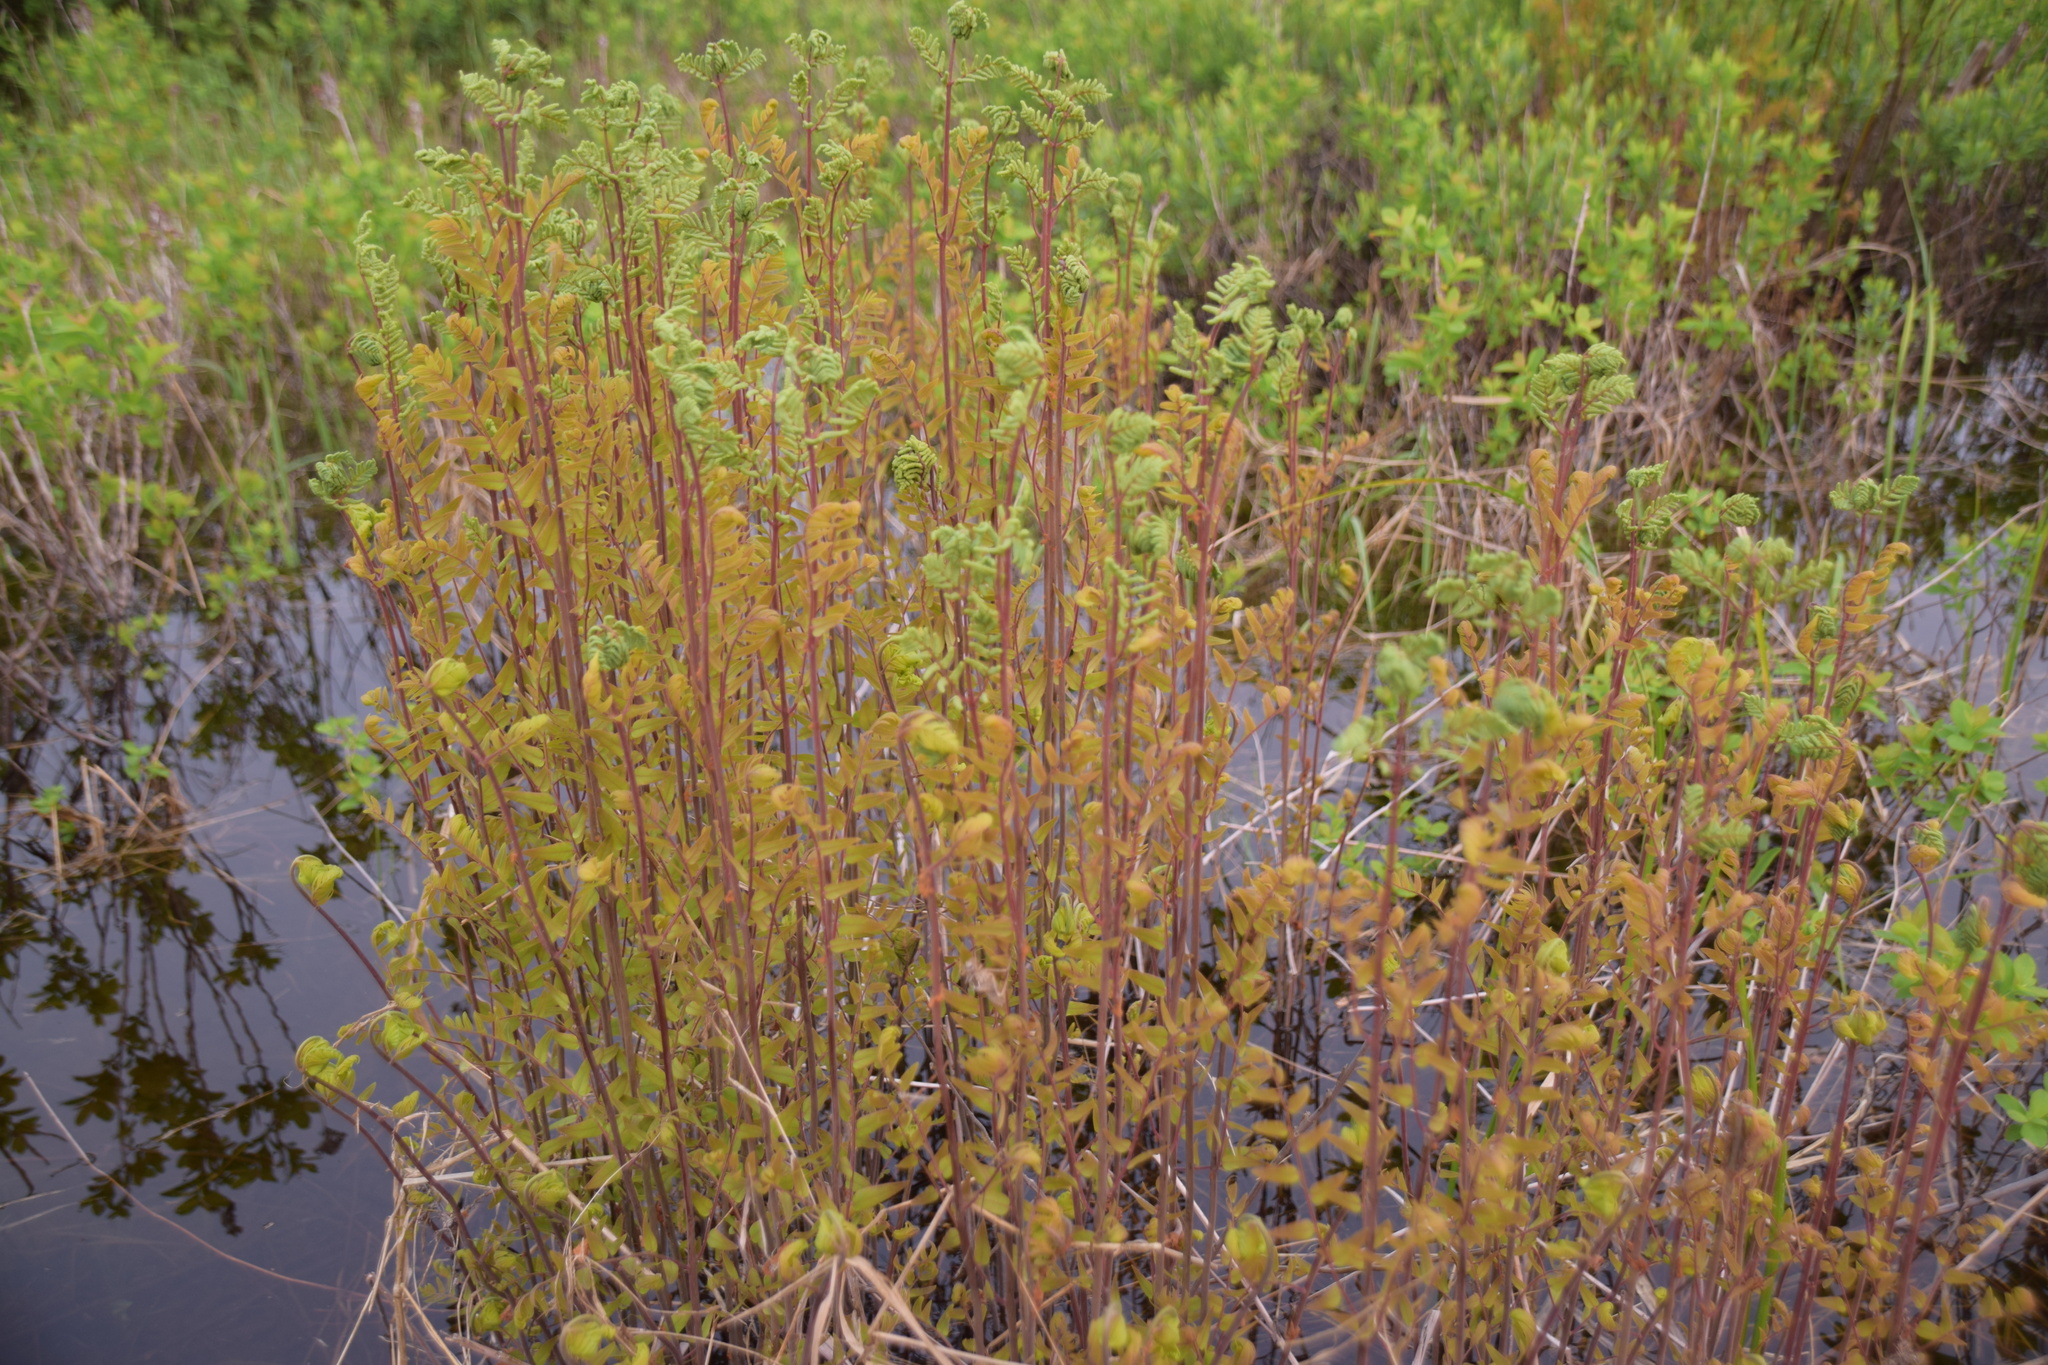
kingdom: Plantae
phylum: Tracheophyta
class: Polypodiopsida
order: Osmundales
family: Osmundaceae
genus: Osmunda
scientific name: Osmunda spectabilis
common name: American royal fern
